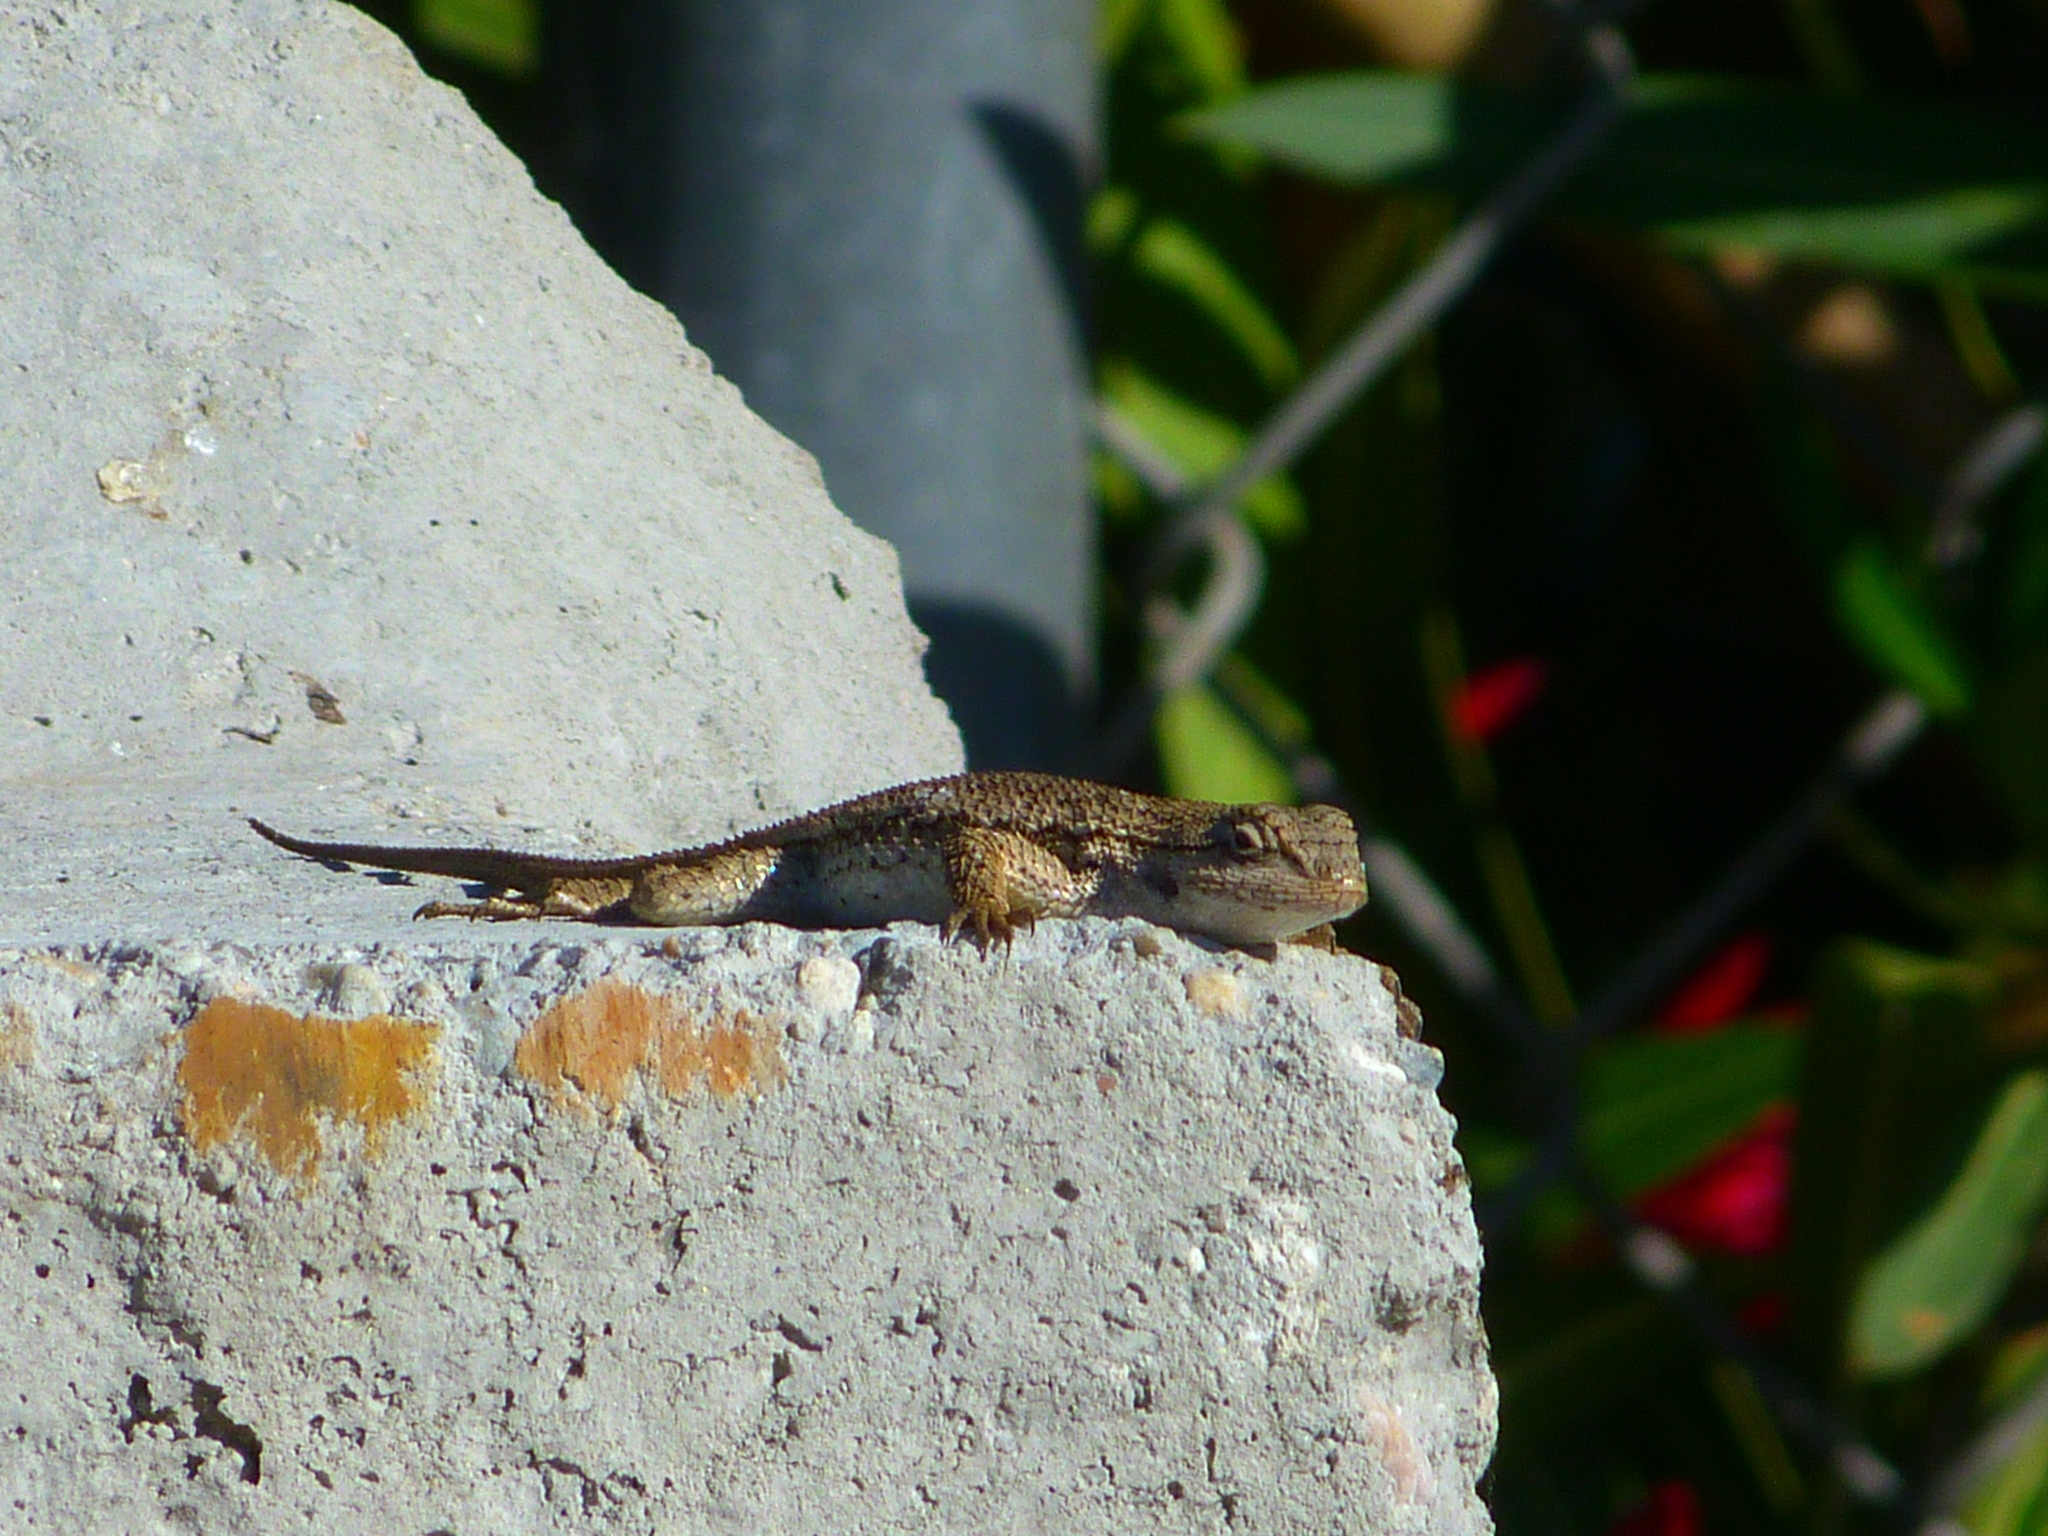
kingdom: Animalia
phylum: Chordata
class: Squamata
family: Phrynosomatidae
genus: Sceloporus
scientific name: Sceloporus occidentalis
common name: Western fence lizard
